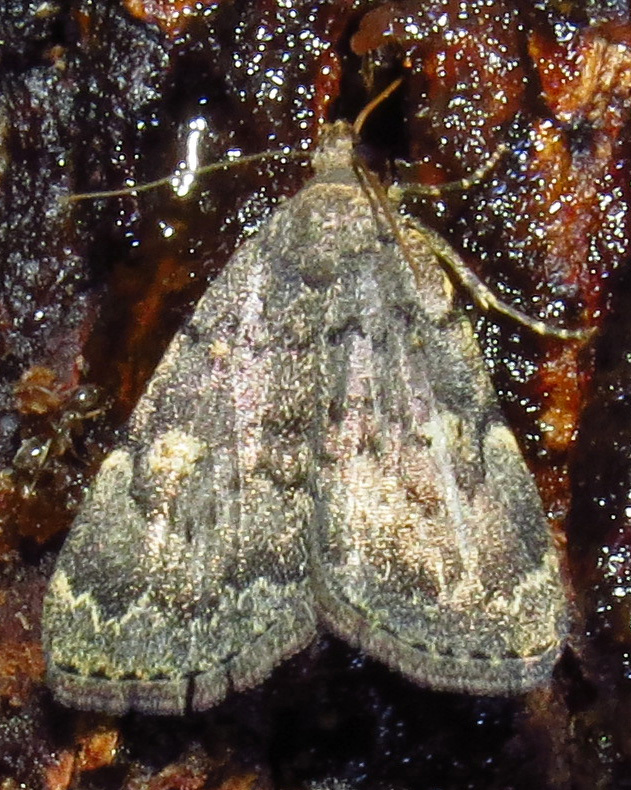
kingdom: Animalia
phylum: Arthropoda
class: Insecta
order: Lepidoptera
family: Erebidae
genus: Idia
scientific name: Idia aemula
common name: Common idia moth
